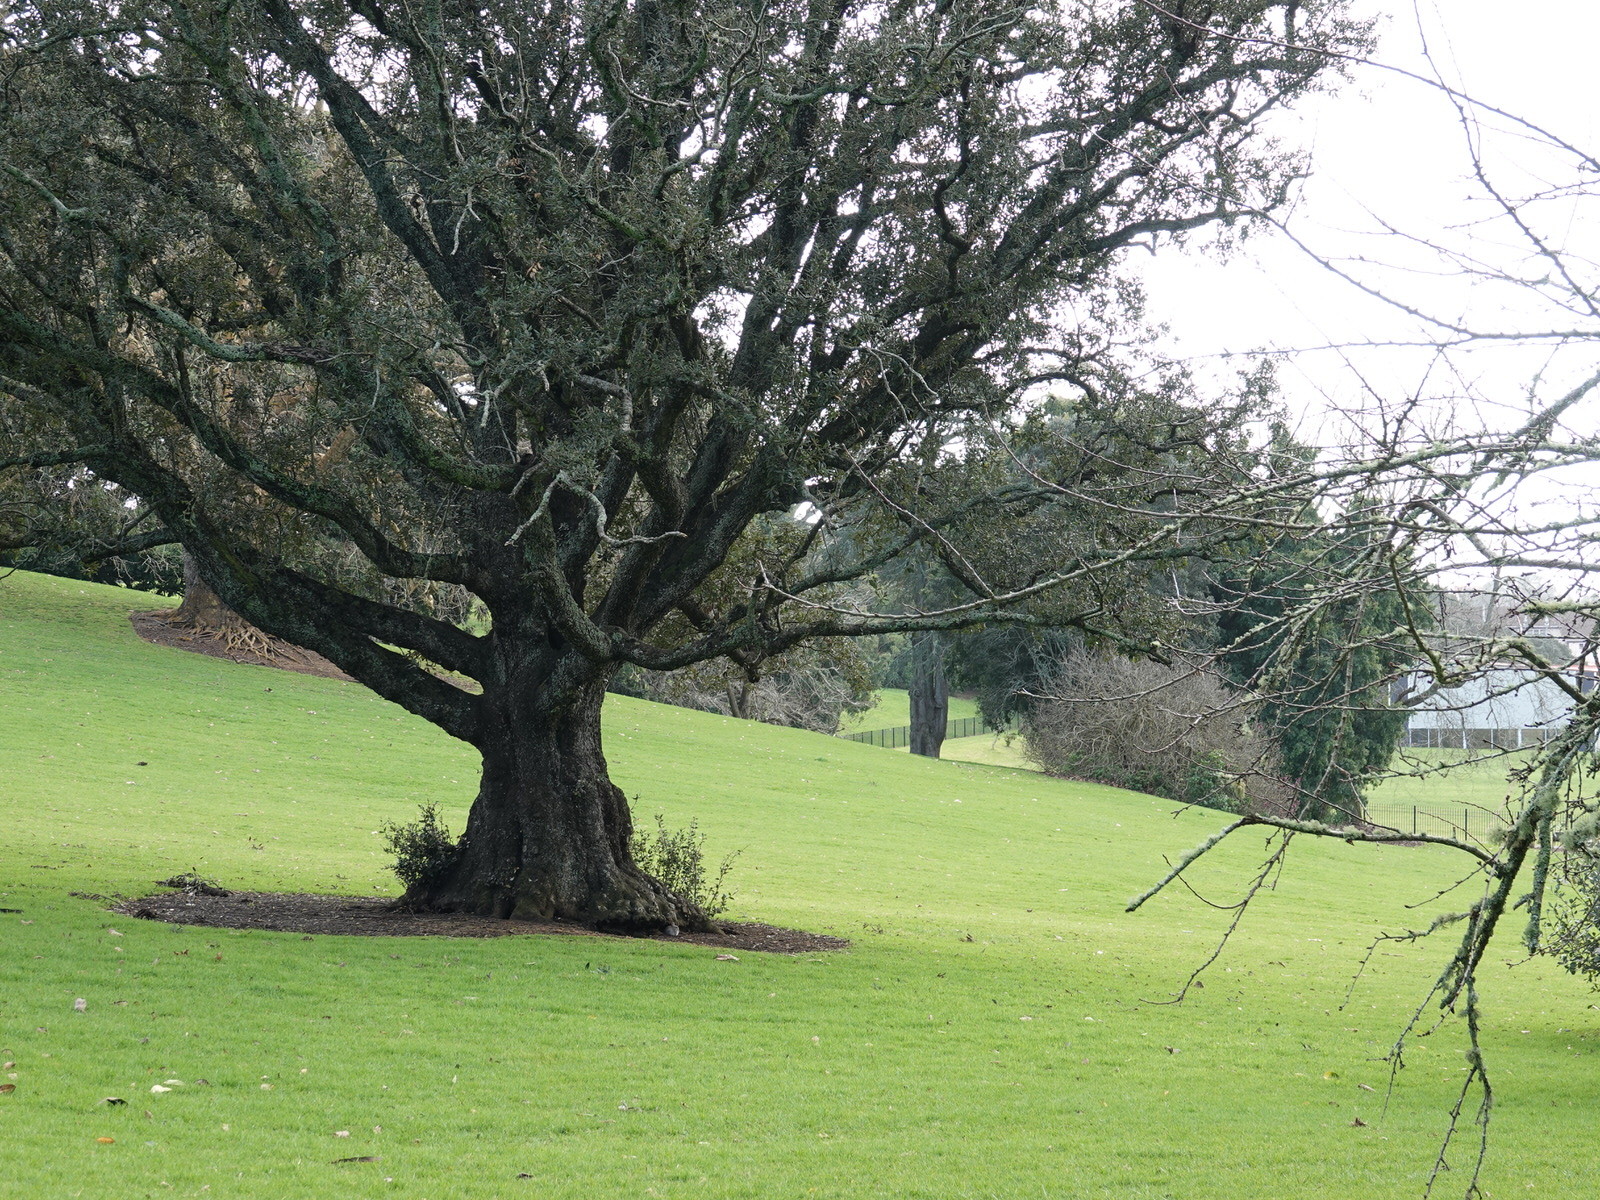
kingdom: Animalia
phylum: Chordata
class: Mammalia
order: Lagomorpha
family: Leporidae
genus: Oryctolagus
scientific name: Oryctolagus cuniculus
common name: European rabbit
